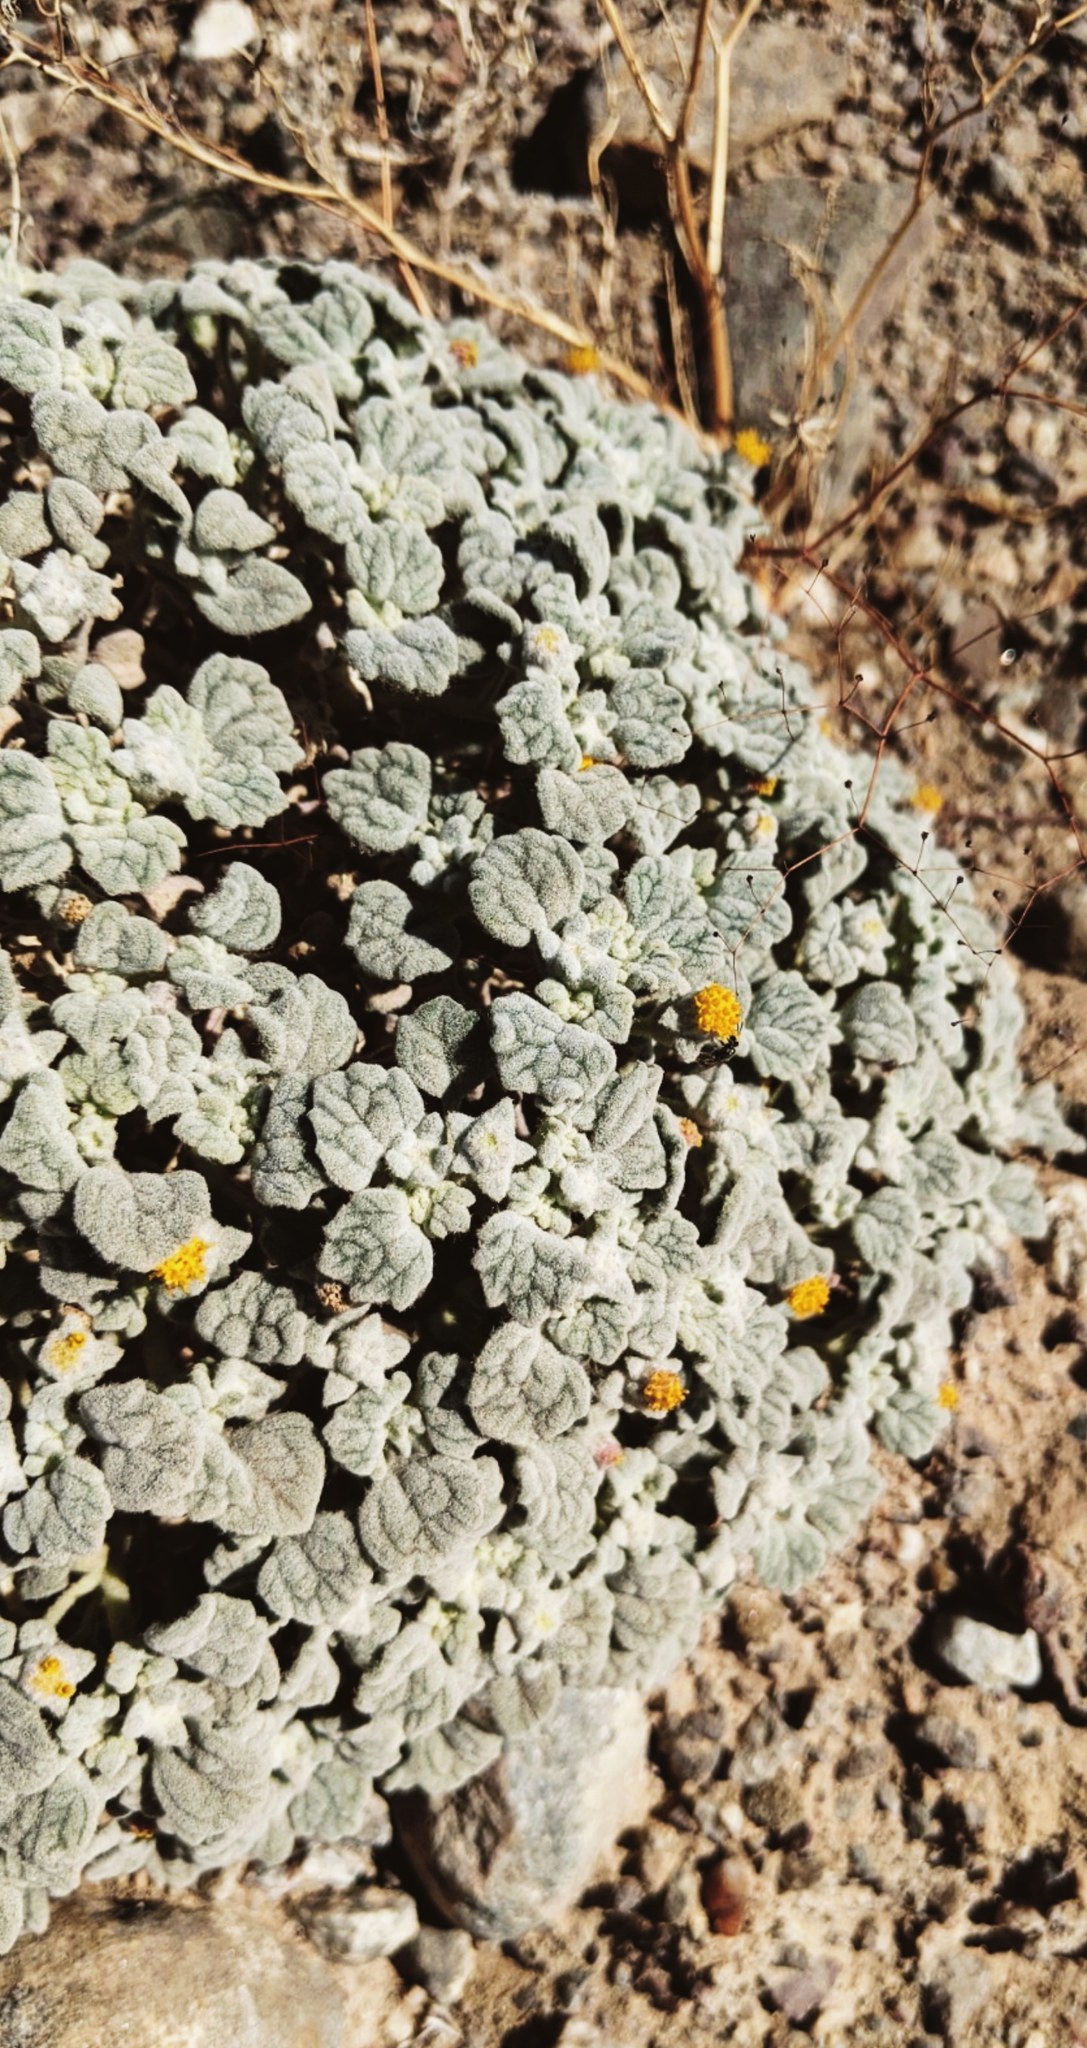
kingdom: Plantae
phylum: Tracheophyta
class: Magnoliopsida
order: Asterales
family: Asteraceae
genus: Psathyrotes
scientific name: Psathyrotes ramosissima
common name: Turtleback
